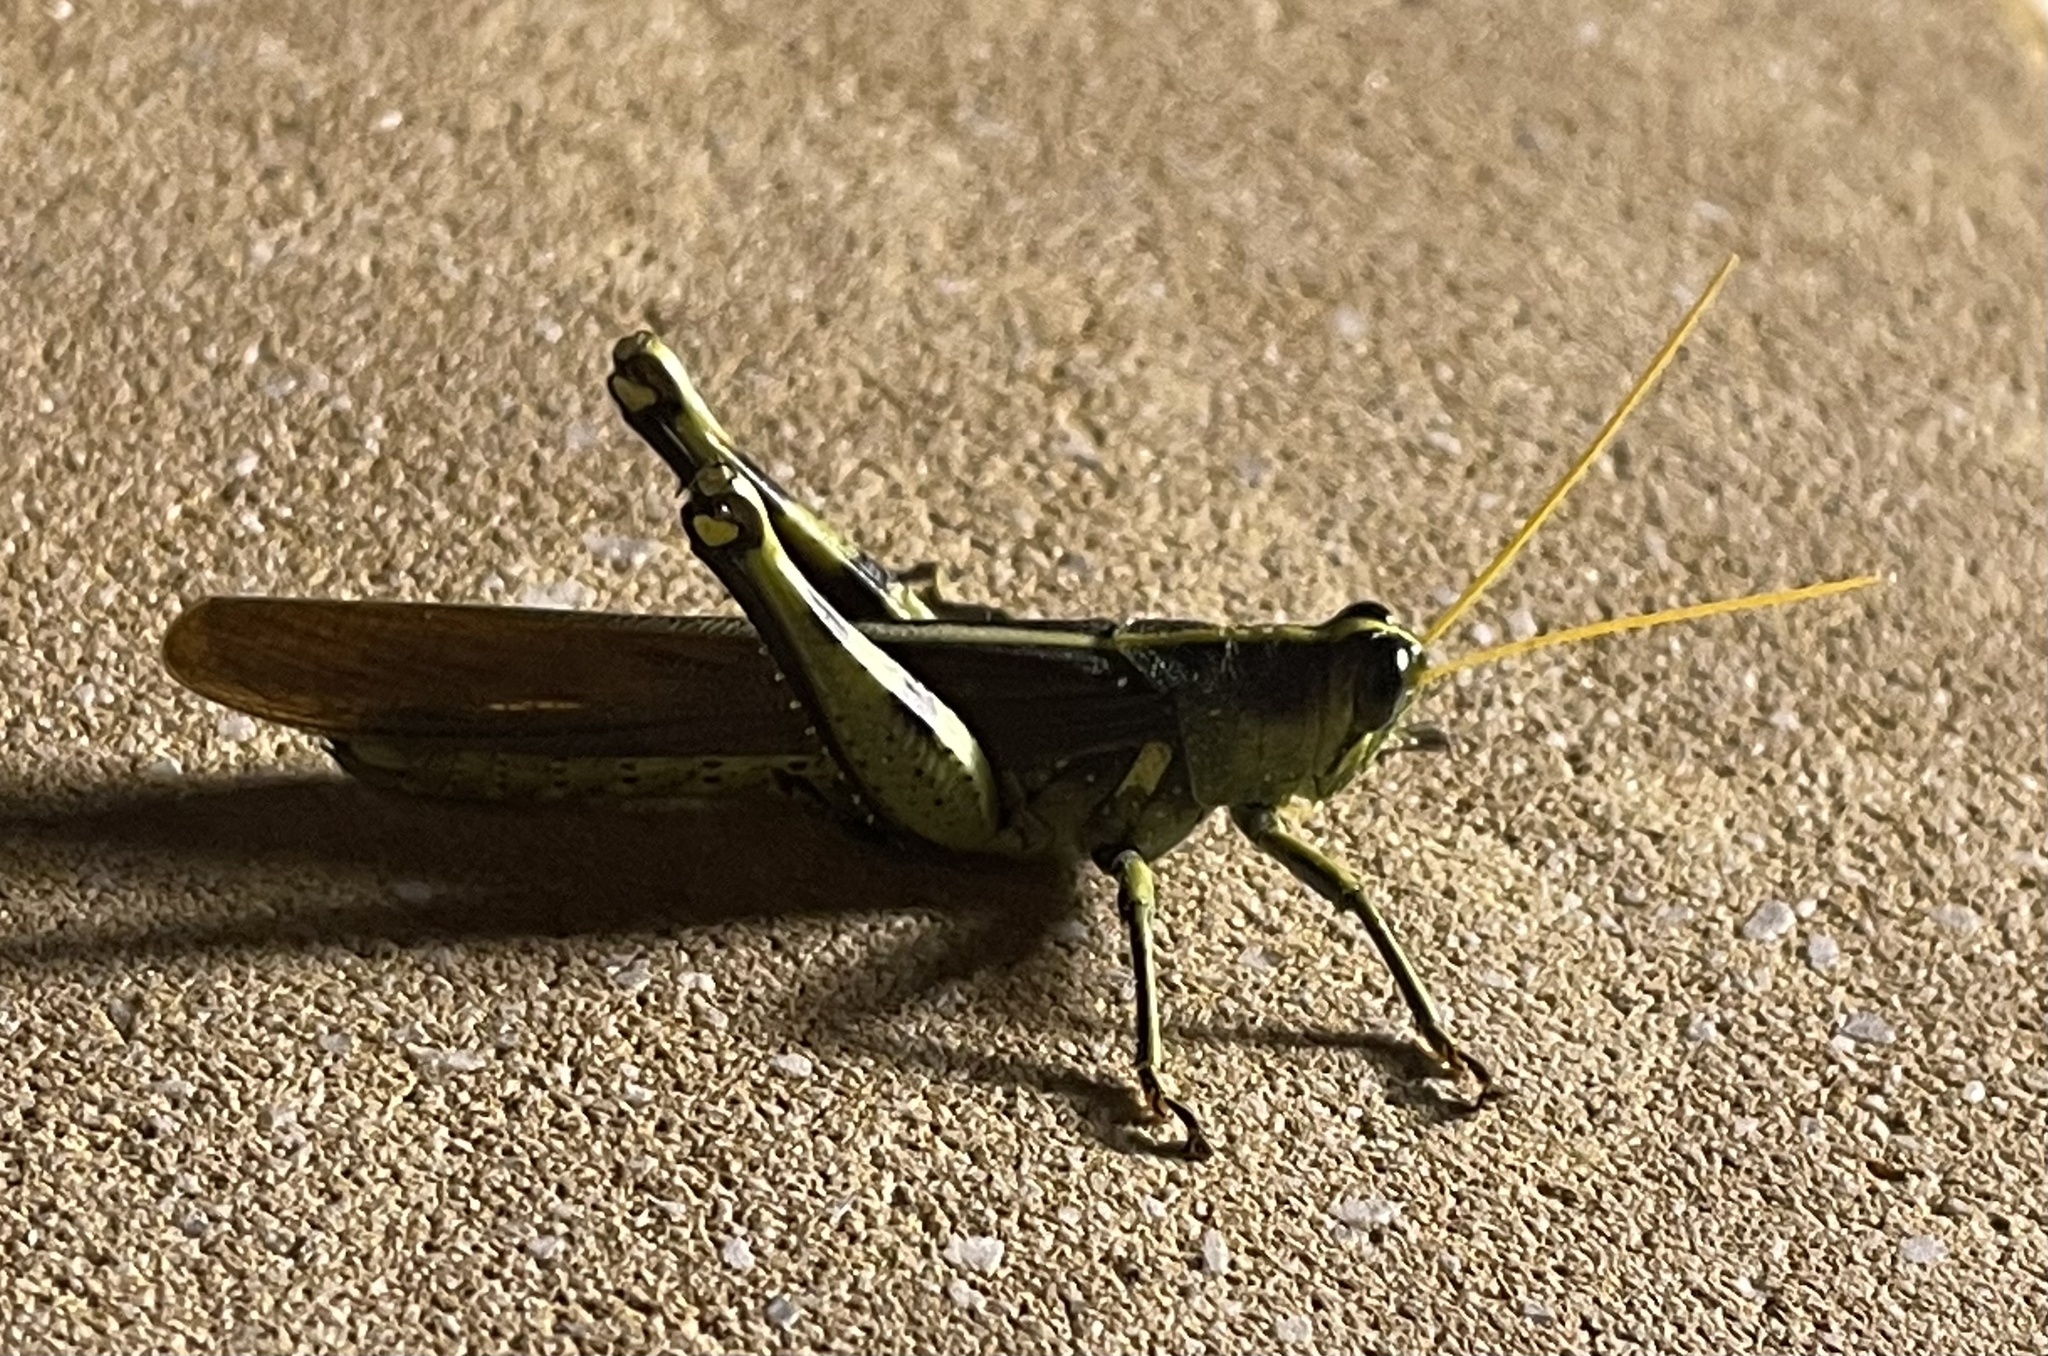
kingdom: Animalia
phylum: Arthropoda
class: Insecta
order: Orthoptera
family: Acrididae
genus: Schistocerca
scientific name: Schistocerca obscura
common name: Obscure bird grasshopper
